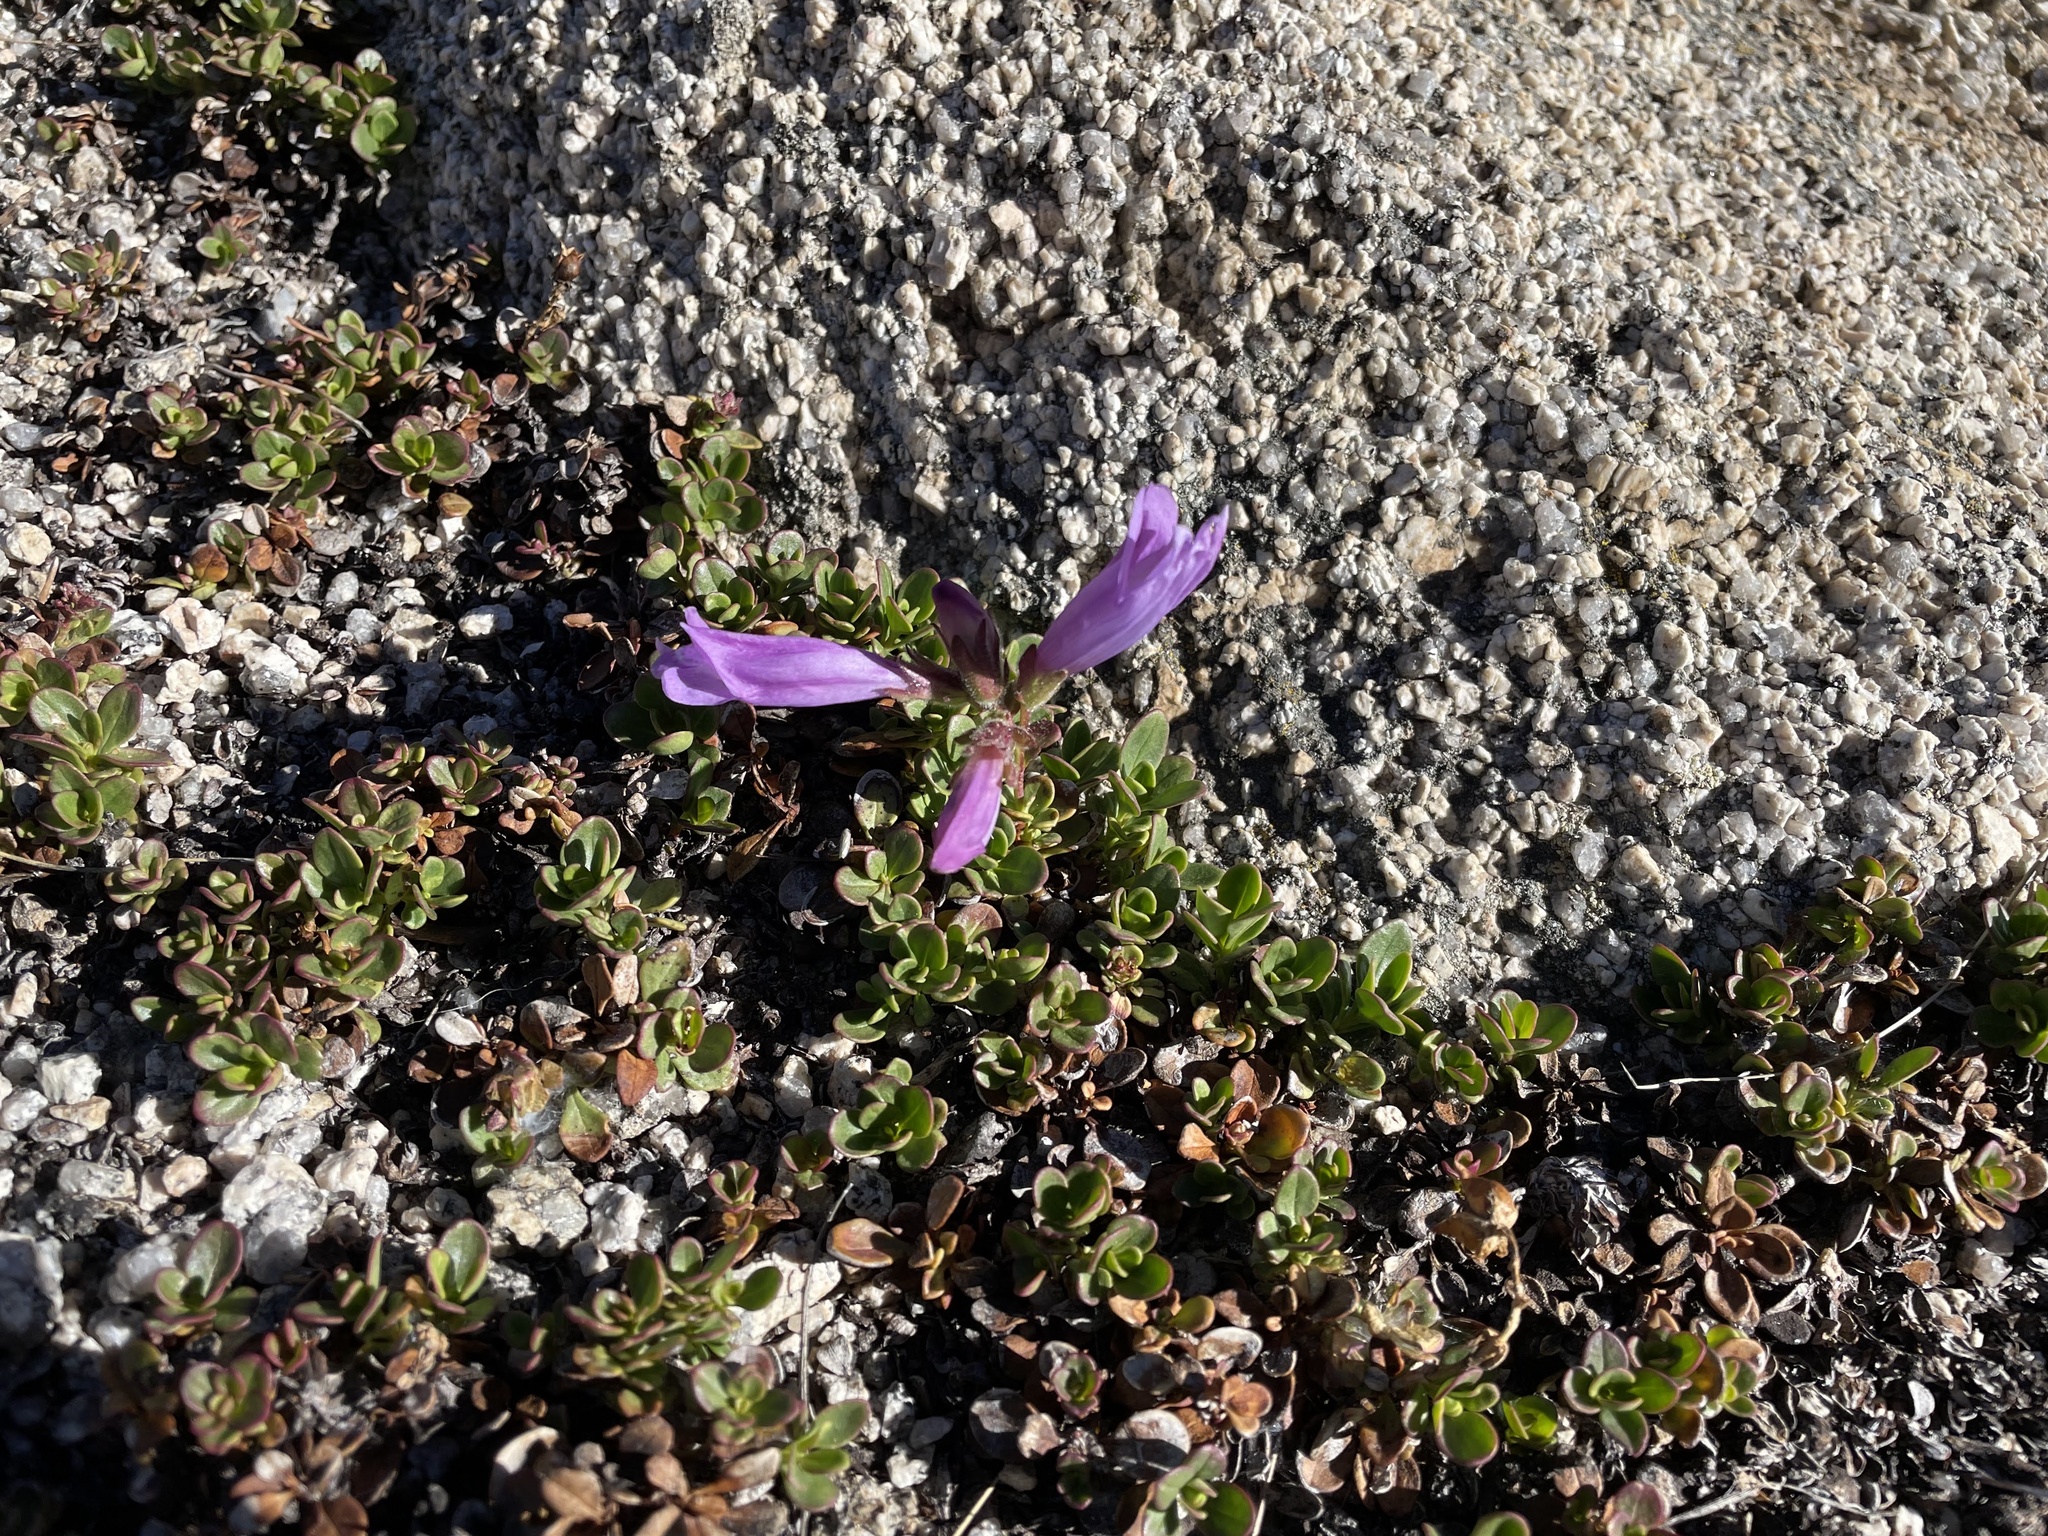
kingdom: Plantae
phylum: Tracheophyta
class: Magnoliopsida
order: Lamiales
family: Plantaginaceae
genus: Penstemon
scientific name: Penstemon davidsonii
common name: Davidson's penstemon
